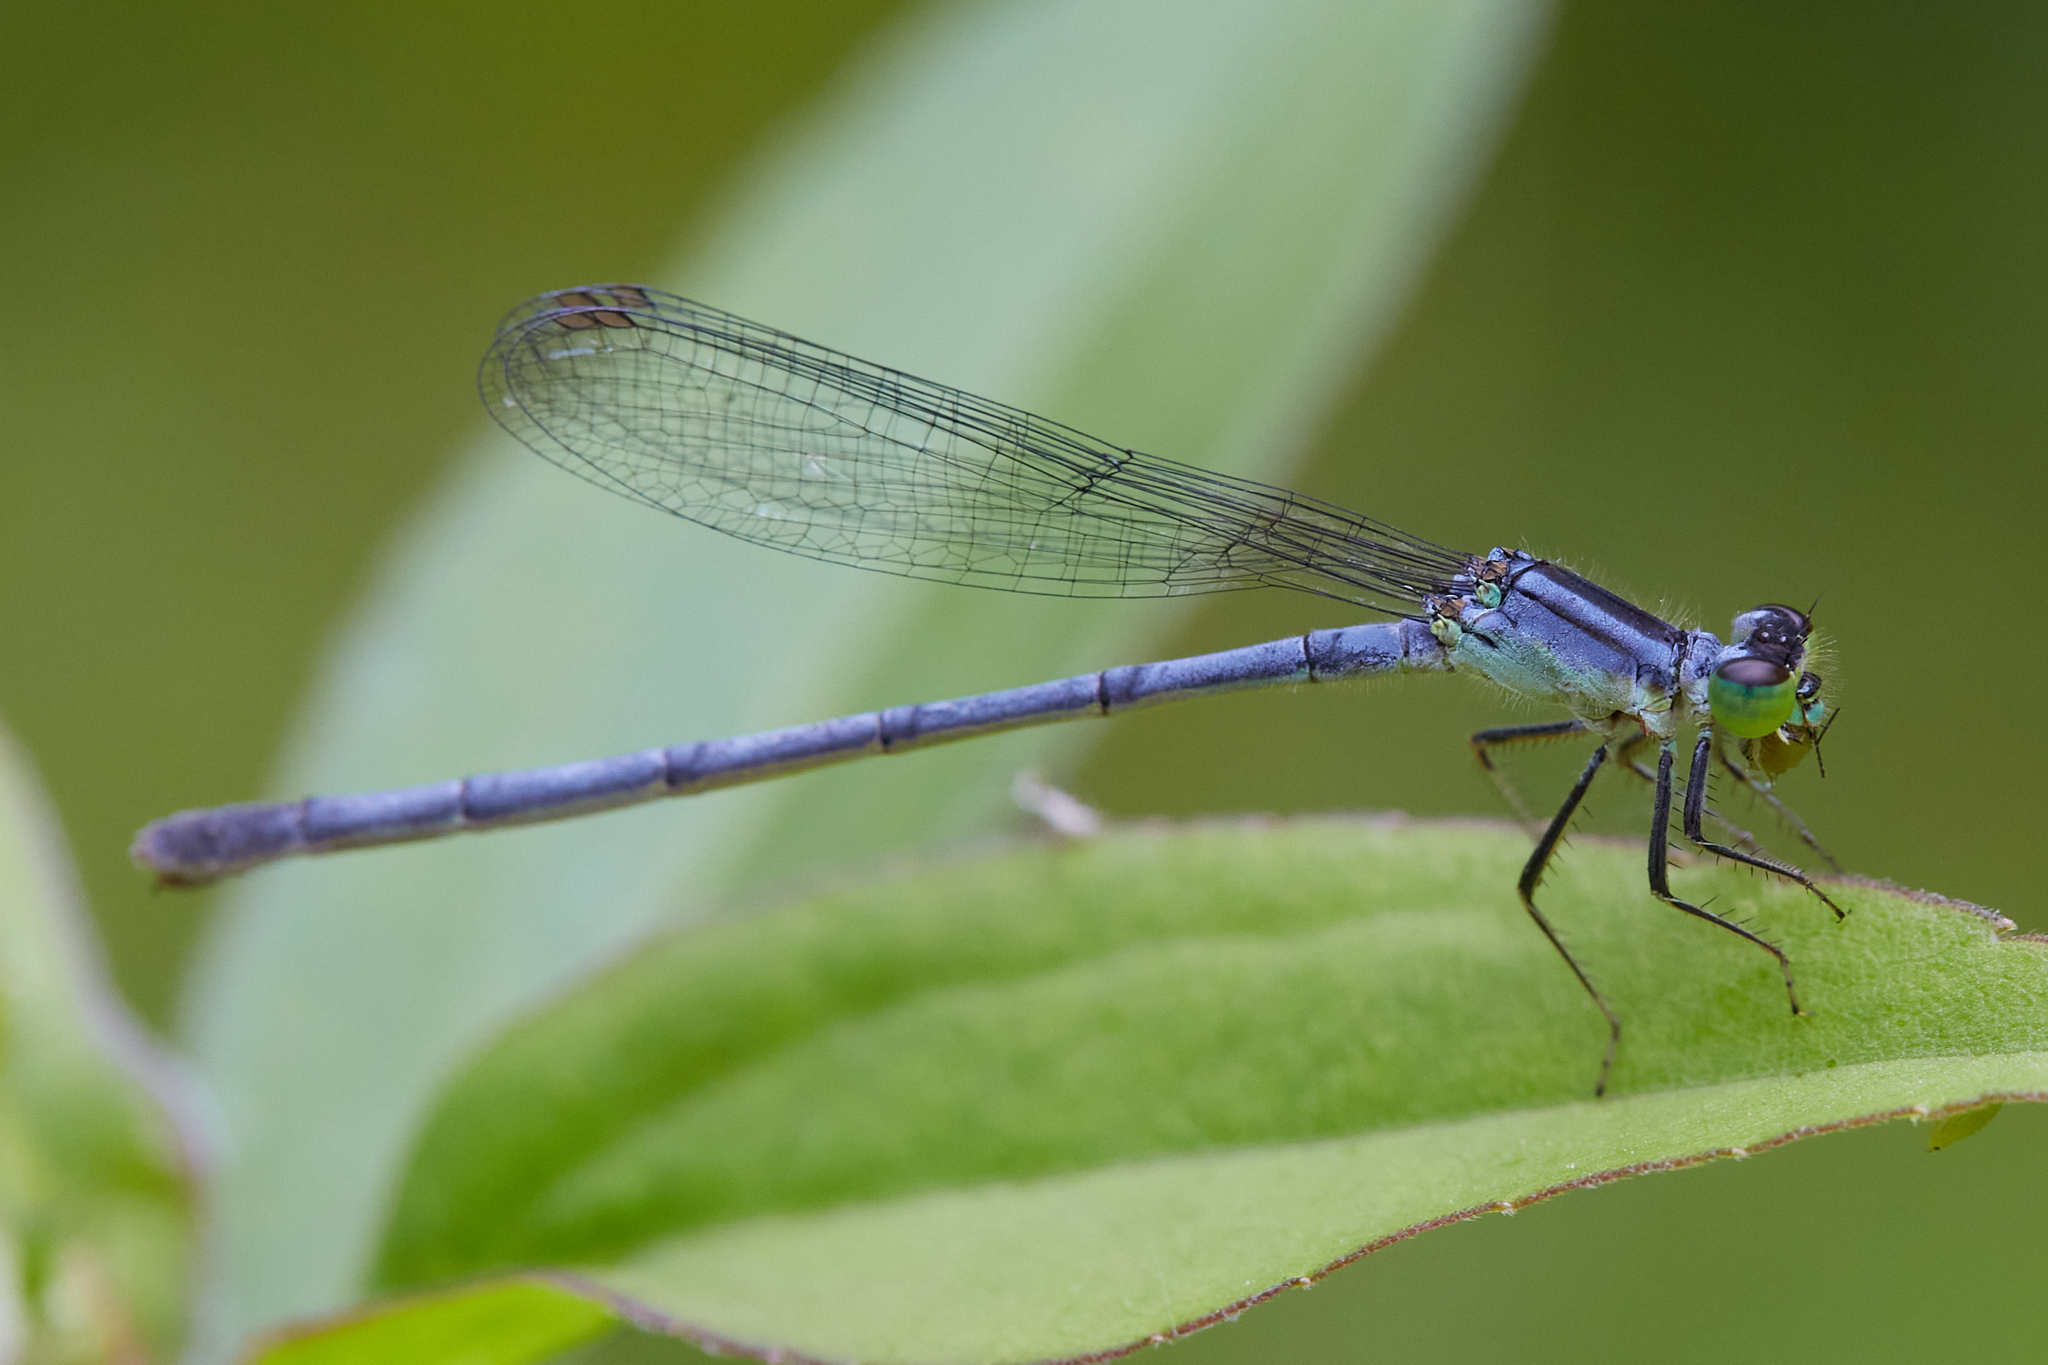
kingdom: Animalia
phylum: Arthropoda
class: Insecta
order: Odonata
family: Coenagrionidae
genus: Ischnura
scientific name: Ischnura verticalis
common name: Eastern forktail
